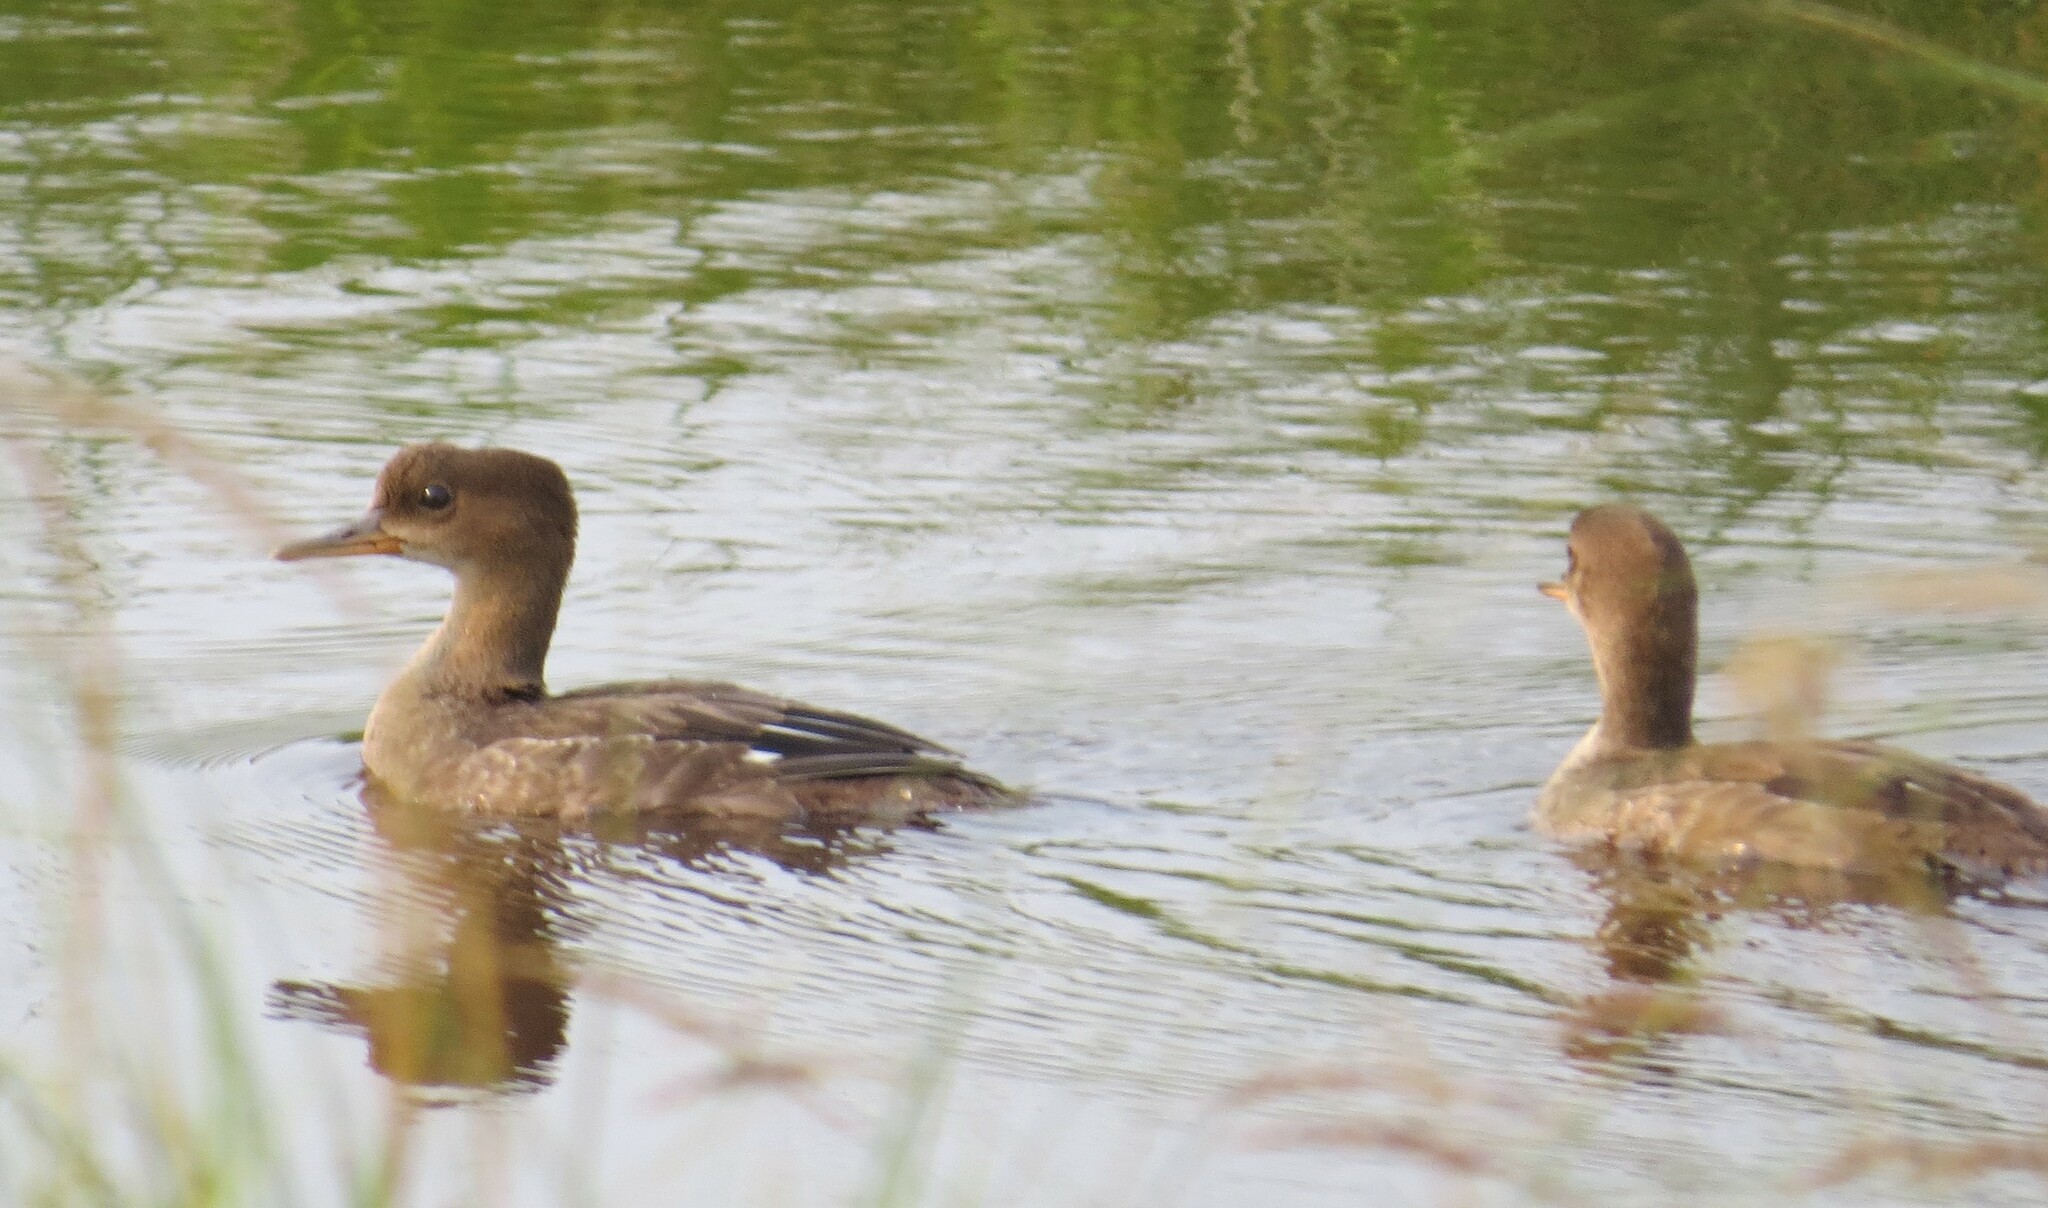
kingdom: Animalia
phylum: Chordata
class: Aves
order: Anseriformes
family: Anatidae
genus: Lophodytes
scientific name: Lophodytes cucullatus
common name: Hooded merganser
